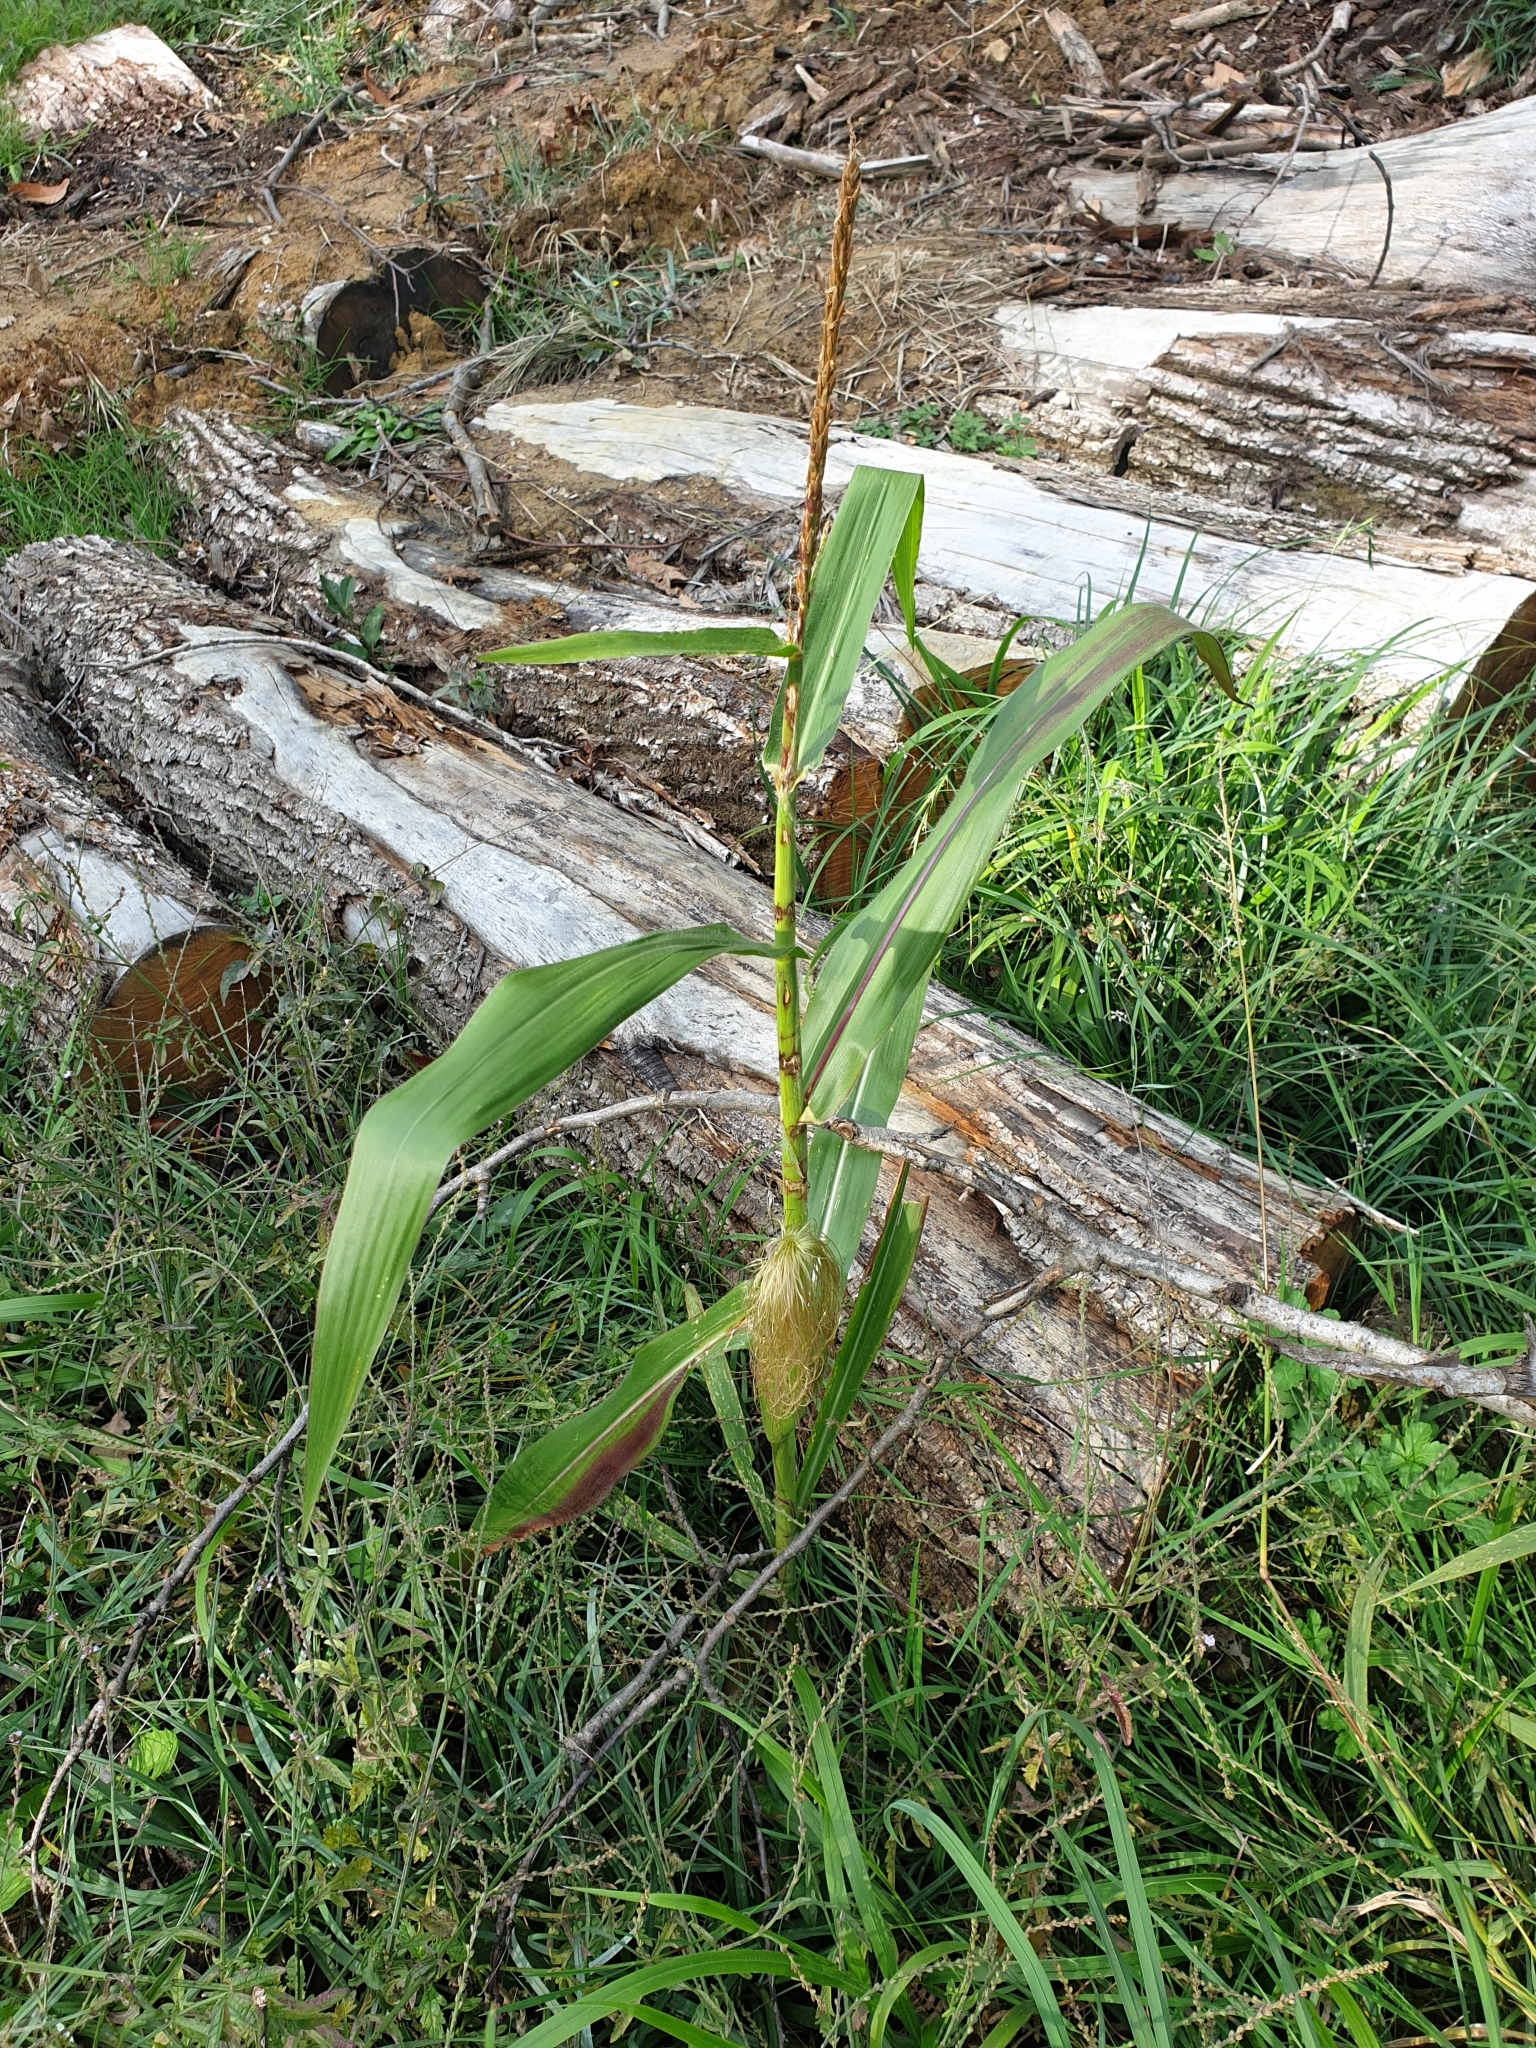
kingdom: Plantae
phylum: Tracheophyta
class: Liliopsida
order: Poales
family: Poaceae
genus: Zea
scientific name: Zea mays
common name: Maize
